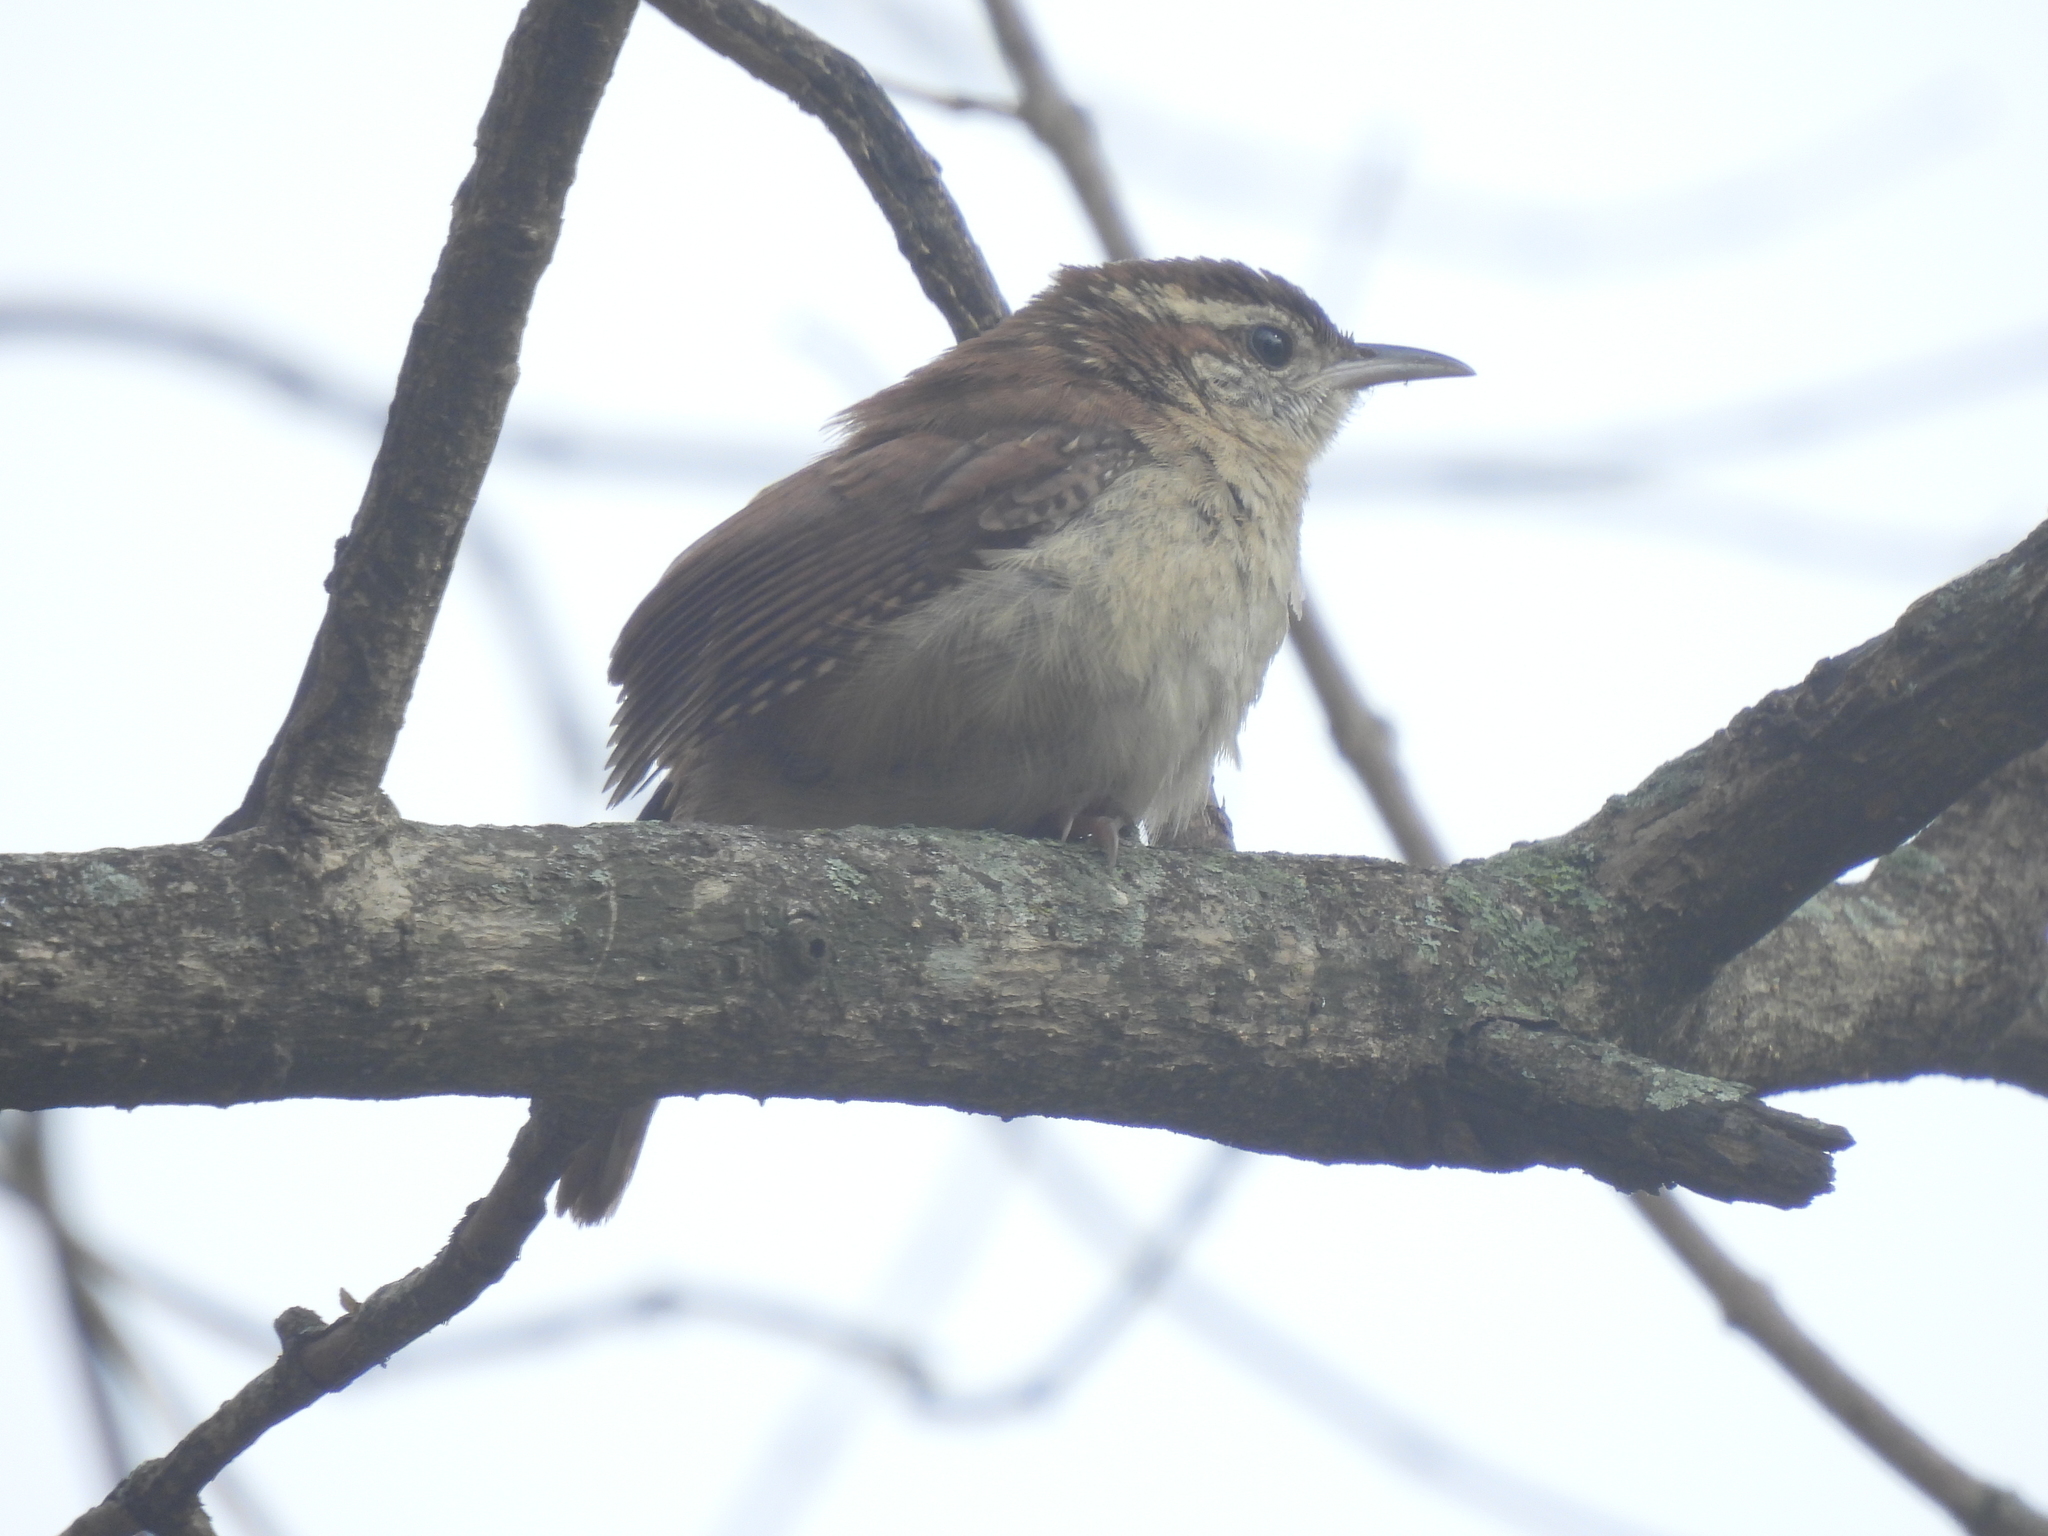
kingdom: Animalia
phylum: Chordata
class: Aves
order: Passeriformes
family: Troglodytidae
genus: Thryothorus
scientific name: Thryothorus ludovicianus
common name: Carolina wren
